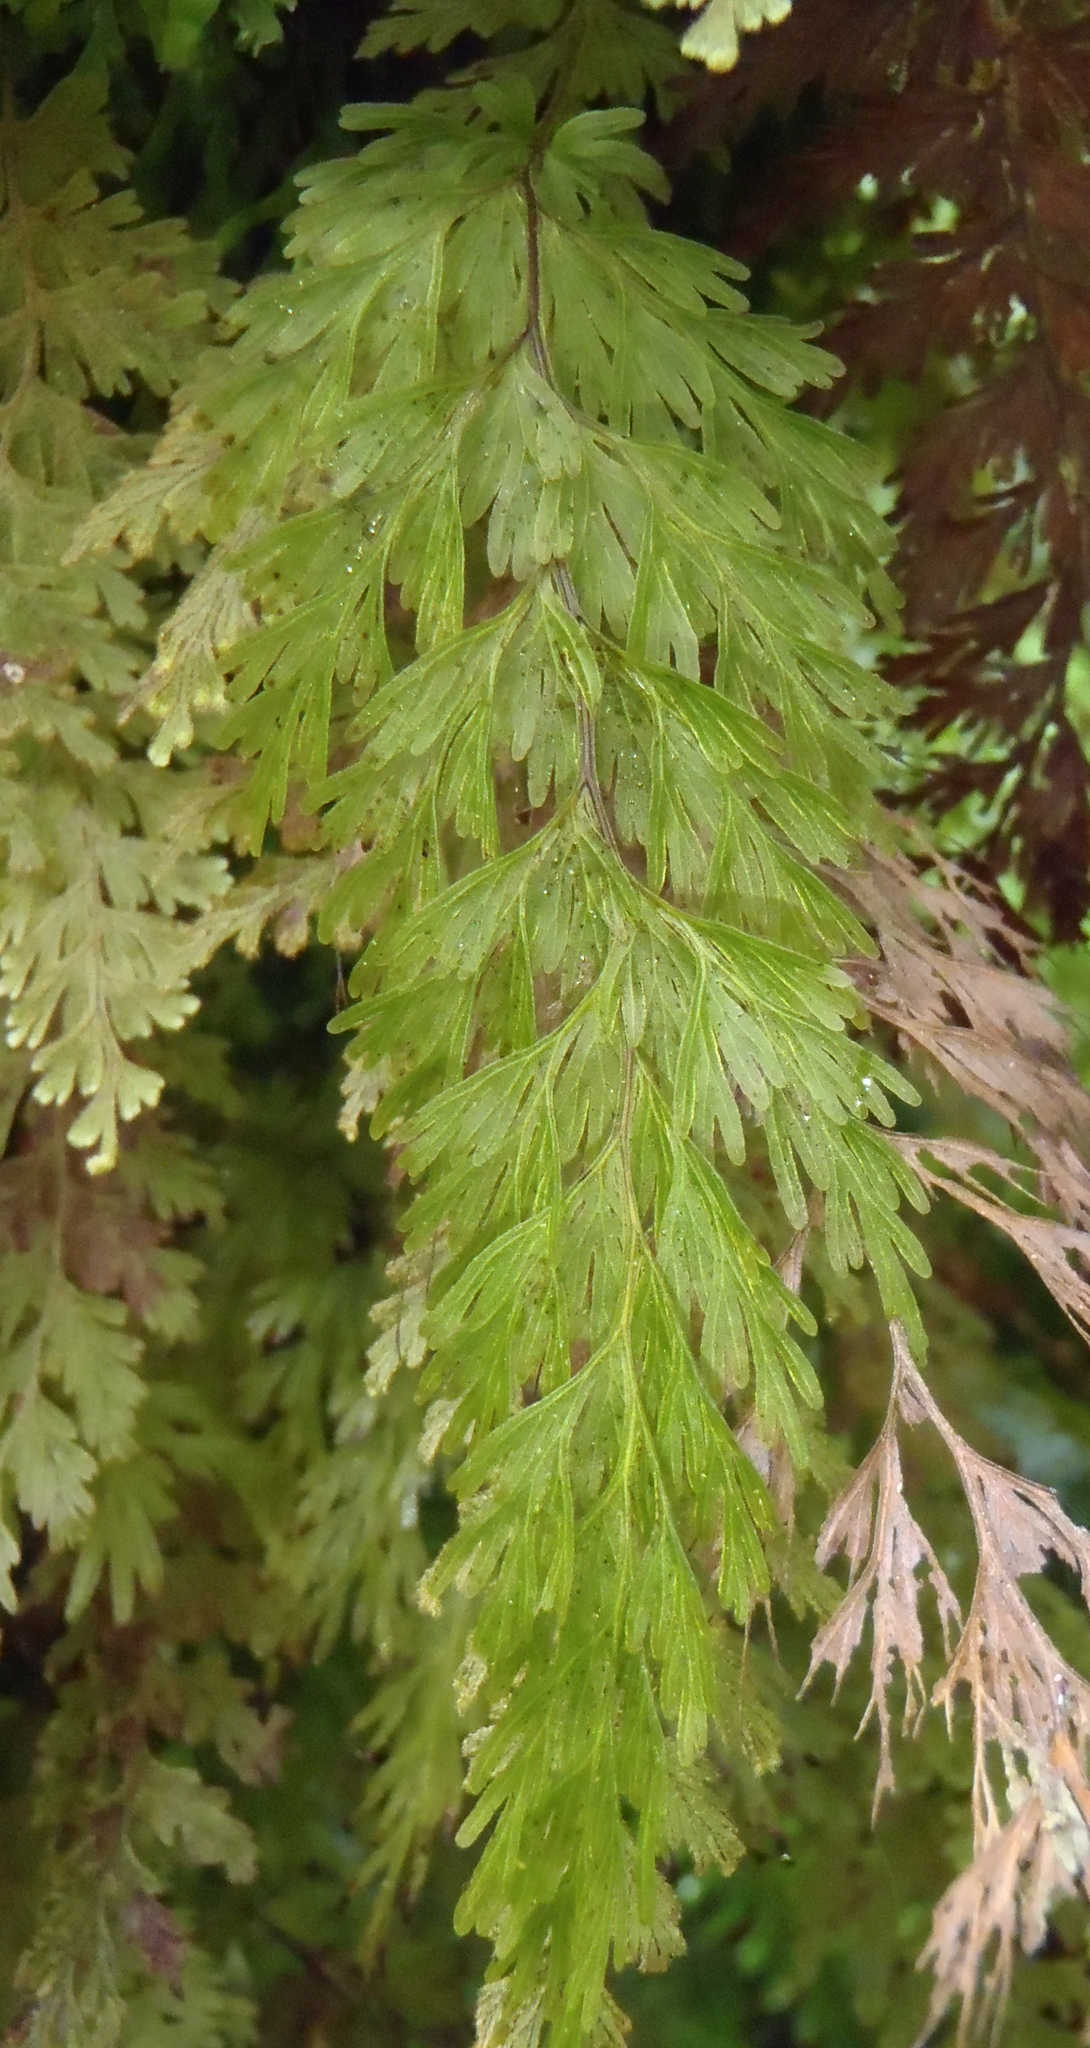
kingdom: Plantae
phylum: Tracheophyta
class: Polypodiopsida
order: Hymenophyllales
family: Hymenophyllaceae
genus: Hymenophyllum
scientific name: Hymenophyllum demissum
